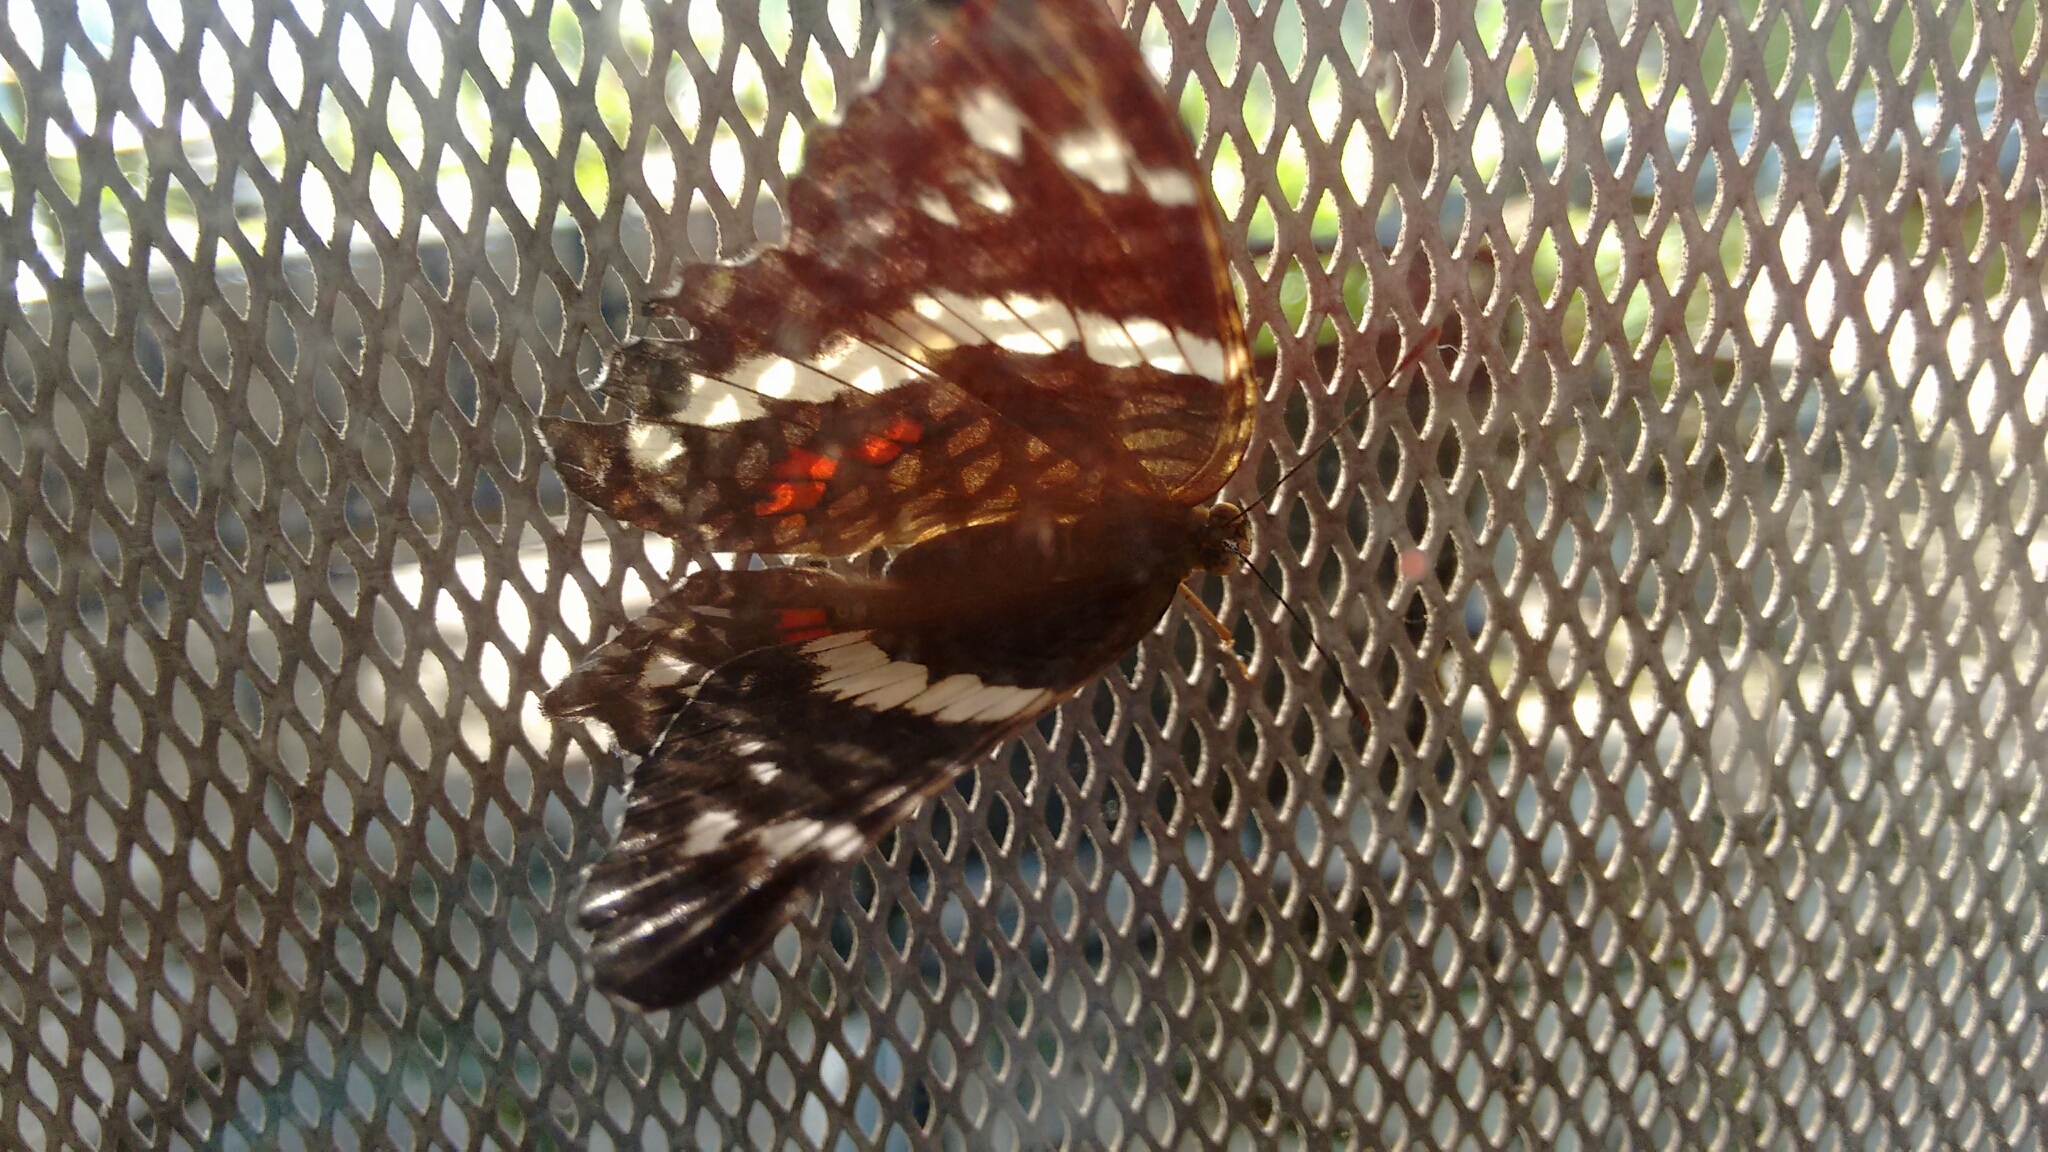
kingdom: Animalia
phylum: Arthropoda
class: Insecta
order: Lepidoptera
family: Nymphalidae
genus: Anartia
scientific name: Anartia fatima
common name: Banded peacock
